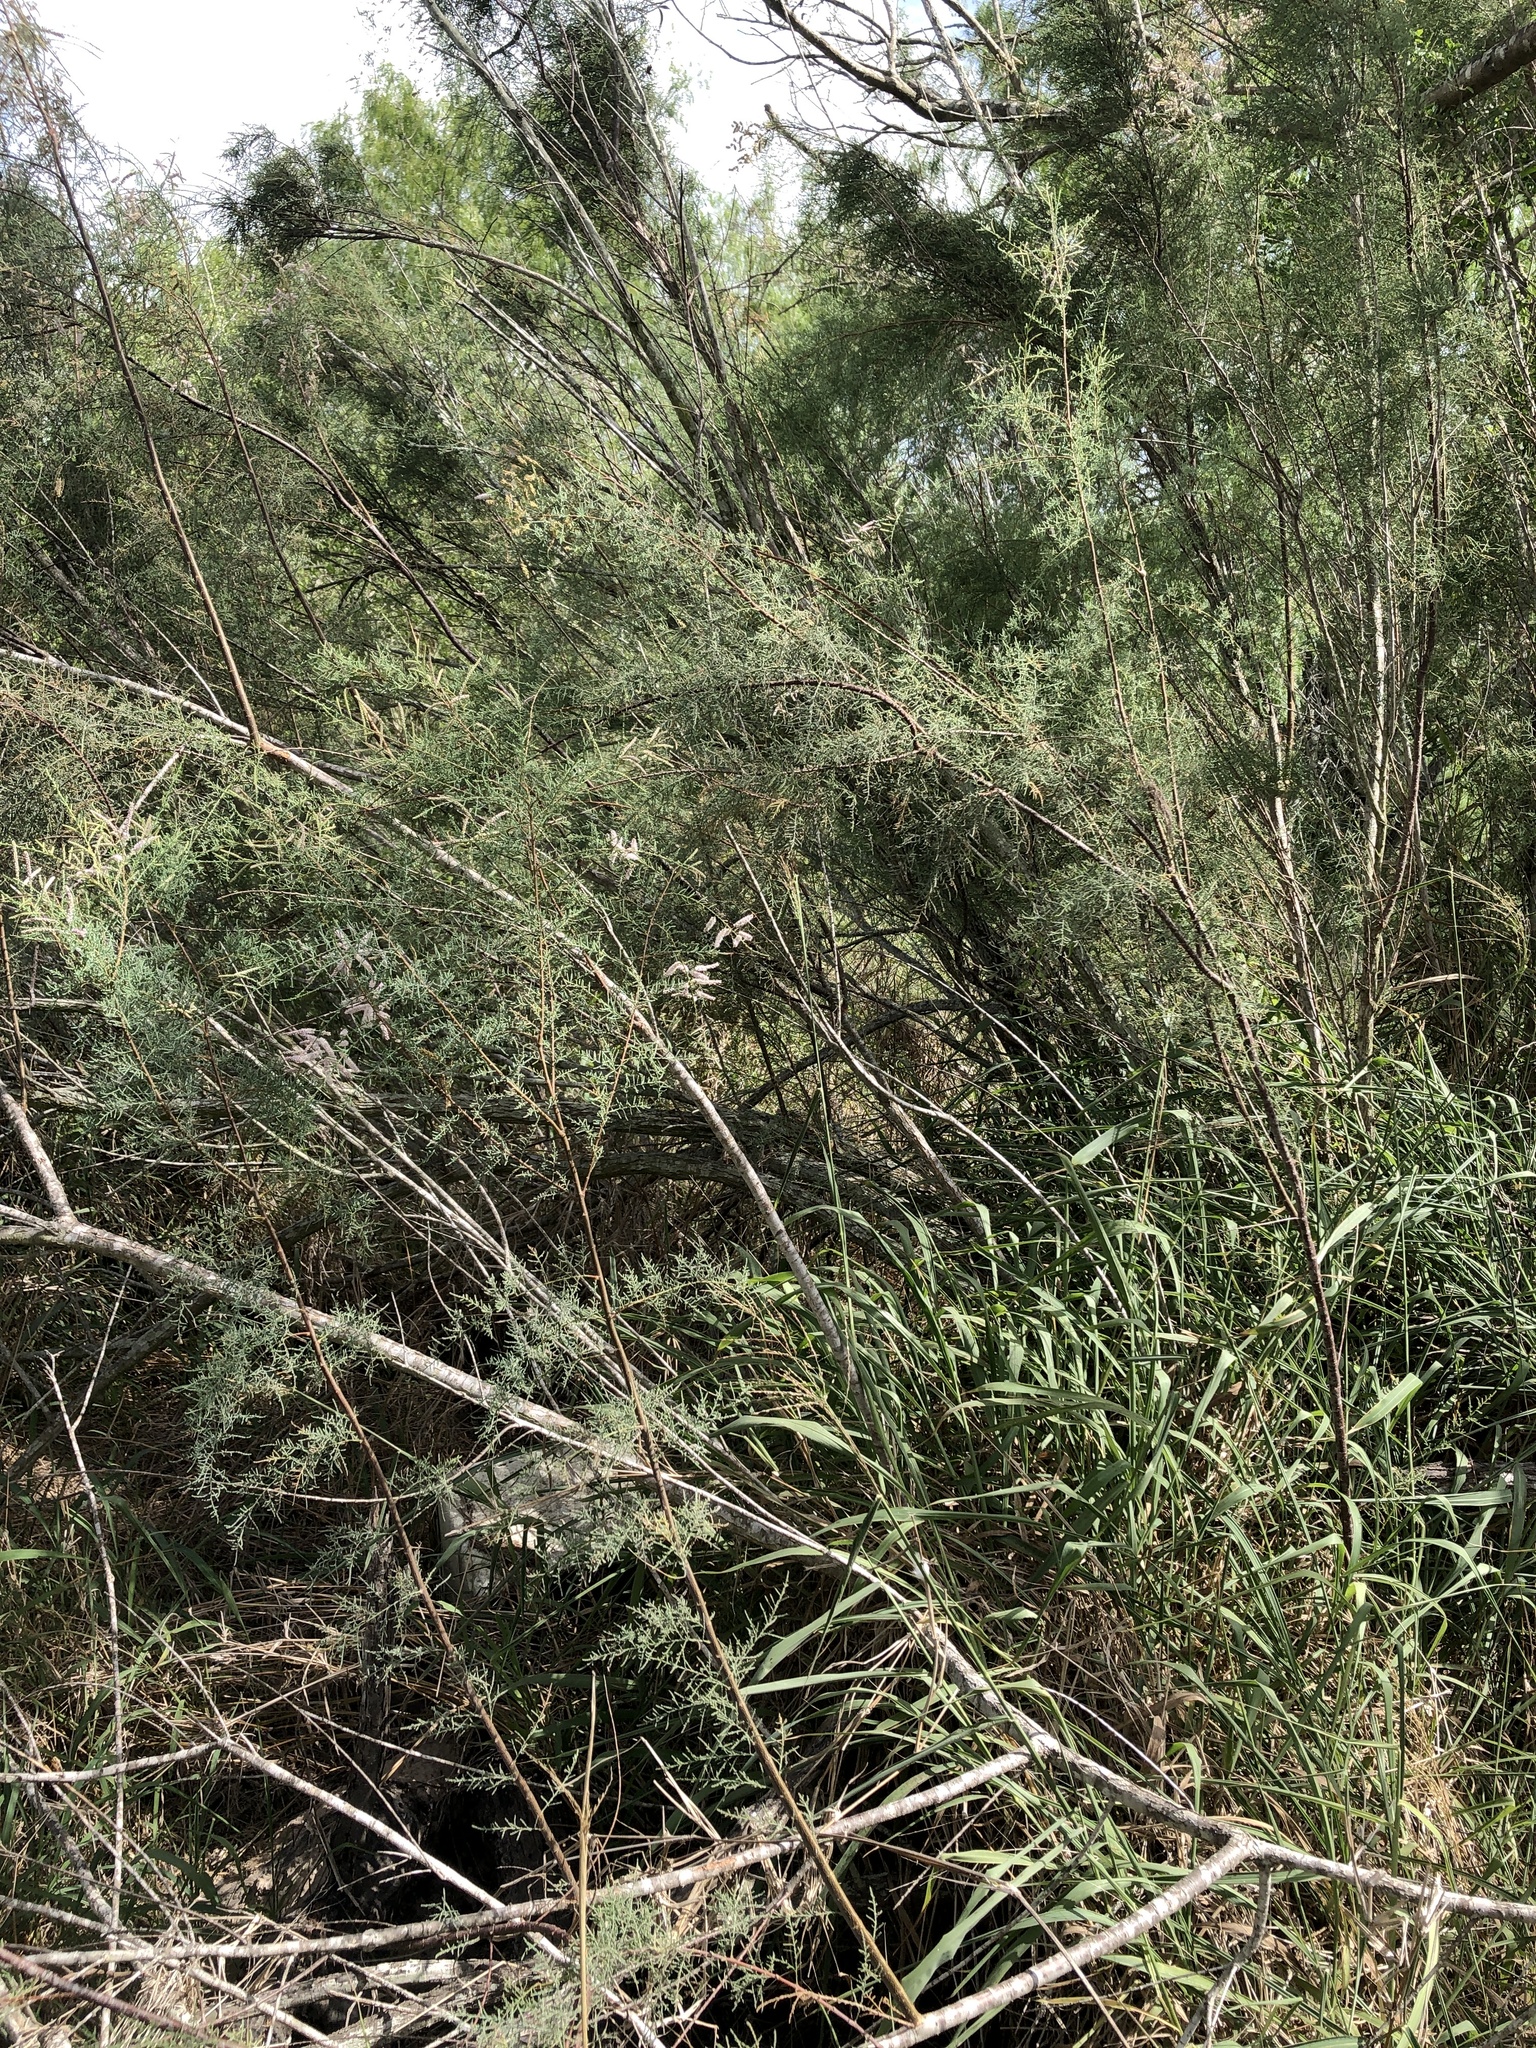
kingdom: Plantae
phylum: Tracheophyta
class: Magnoliopsida
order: Caryophyllales
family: Tamaricaceae
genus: Tamarix
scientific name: Tamarix
